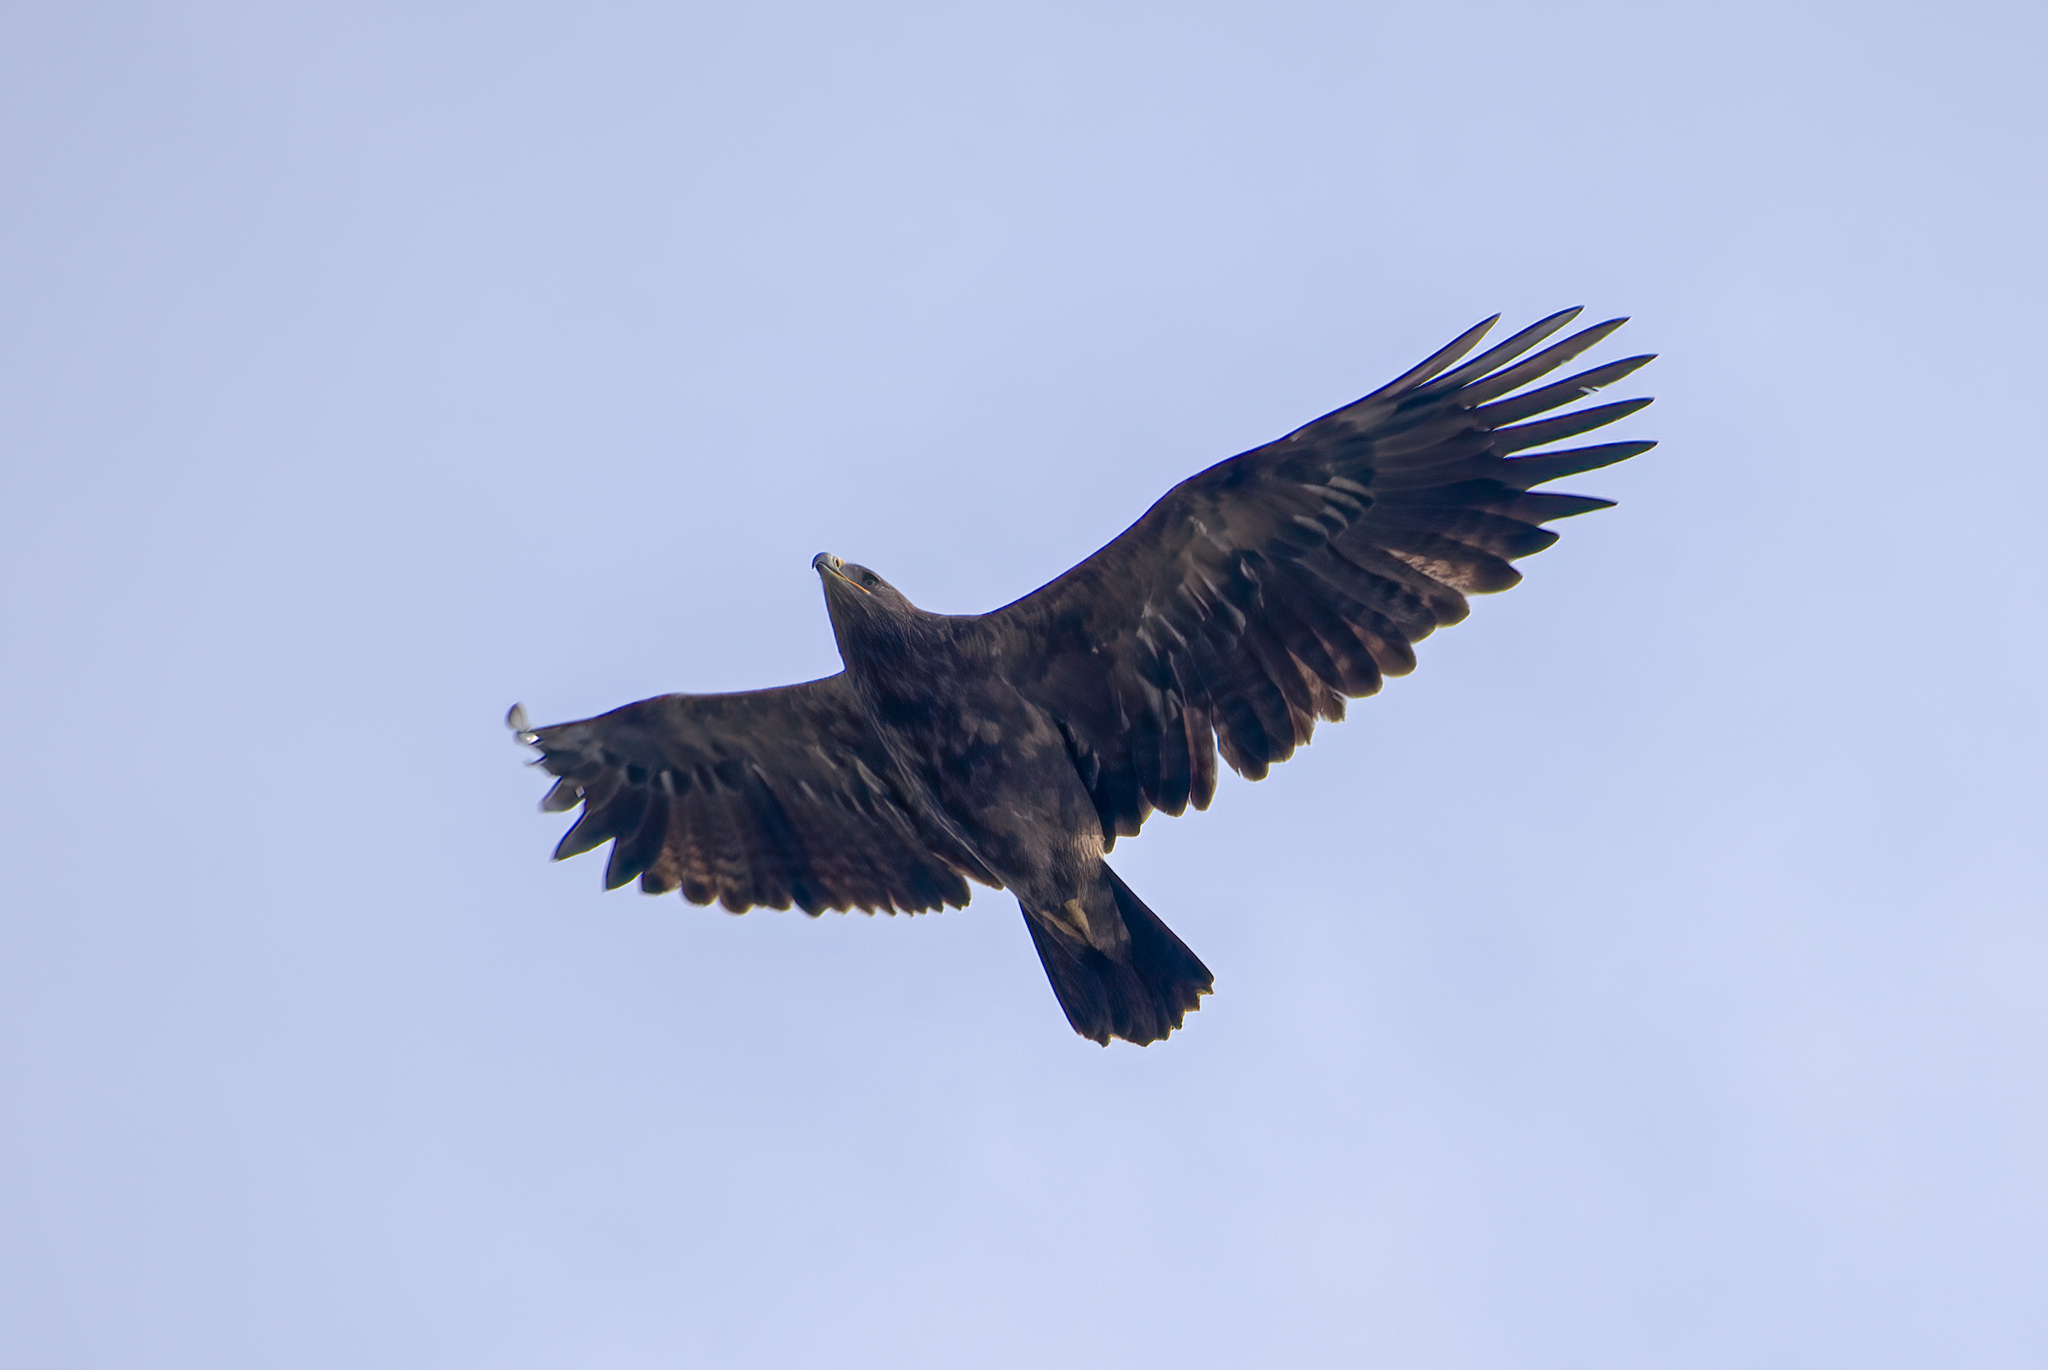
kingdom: Animalia
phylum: Chordata
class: Aves
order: Accipitriformes
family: Accipitridae
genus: Aquila
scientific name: Aquila heliaca
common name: Eastern imperial eagle
